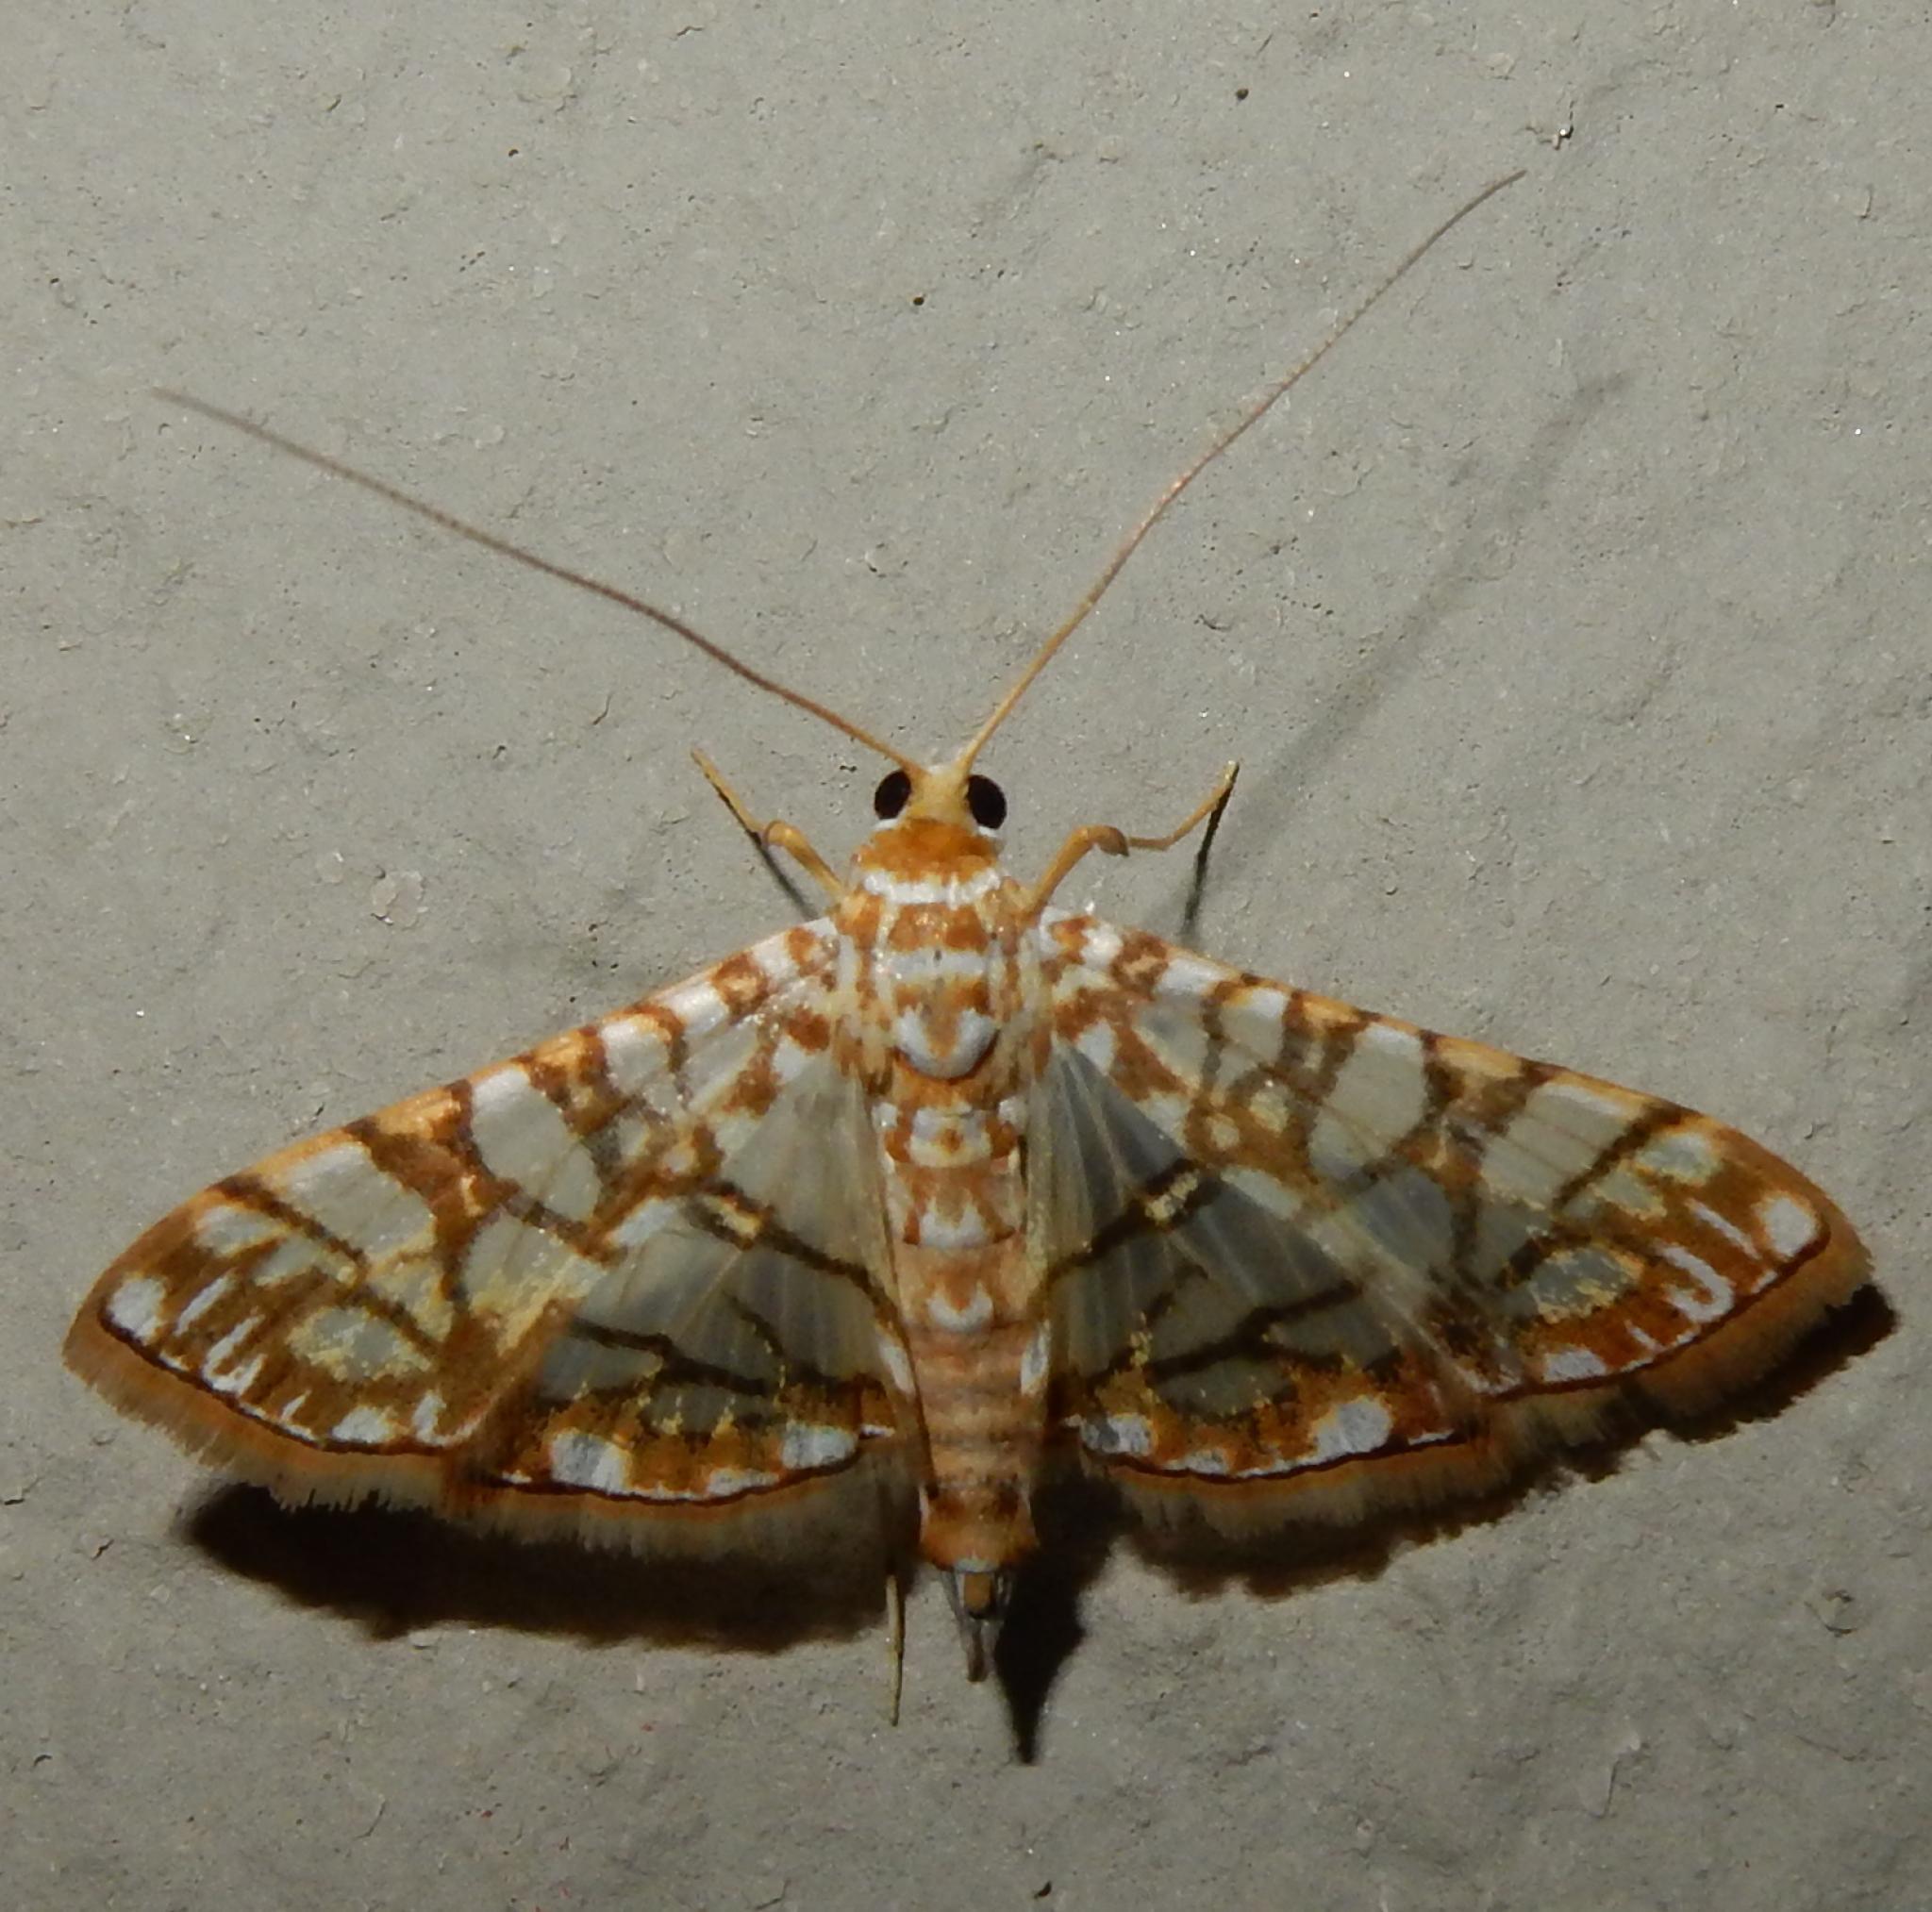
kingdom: Animalia
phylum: Arthropoda
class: Insecta
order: Lepidoptera
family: Crambidae
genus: Synclera
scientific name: Synclera traducalis
